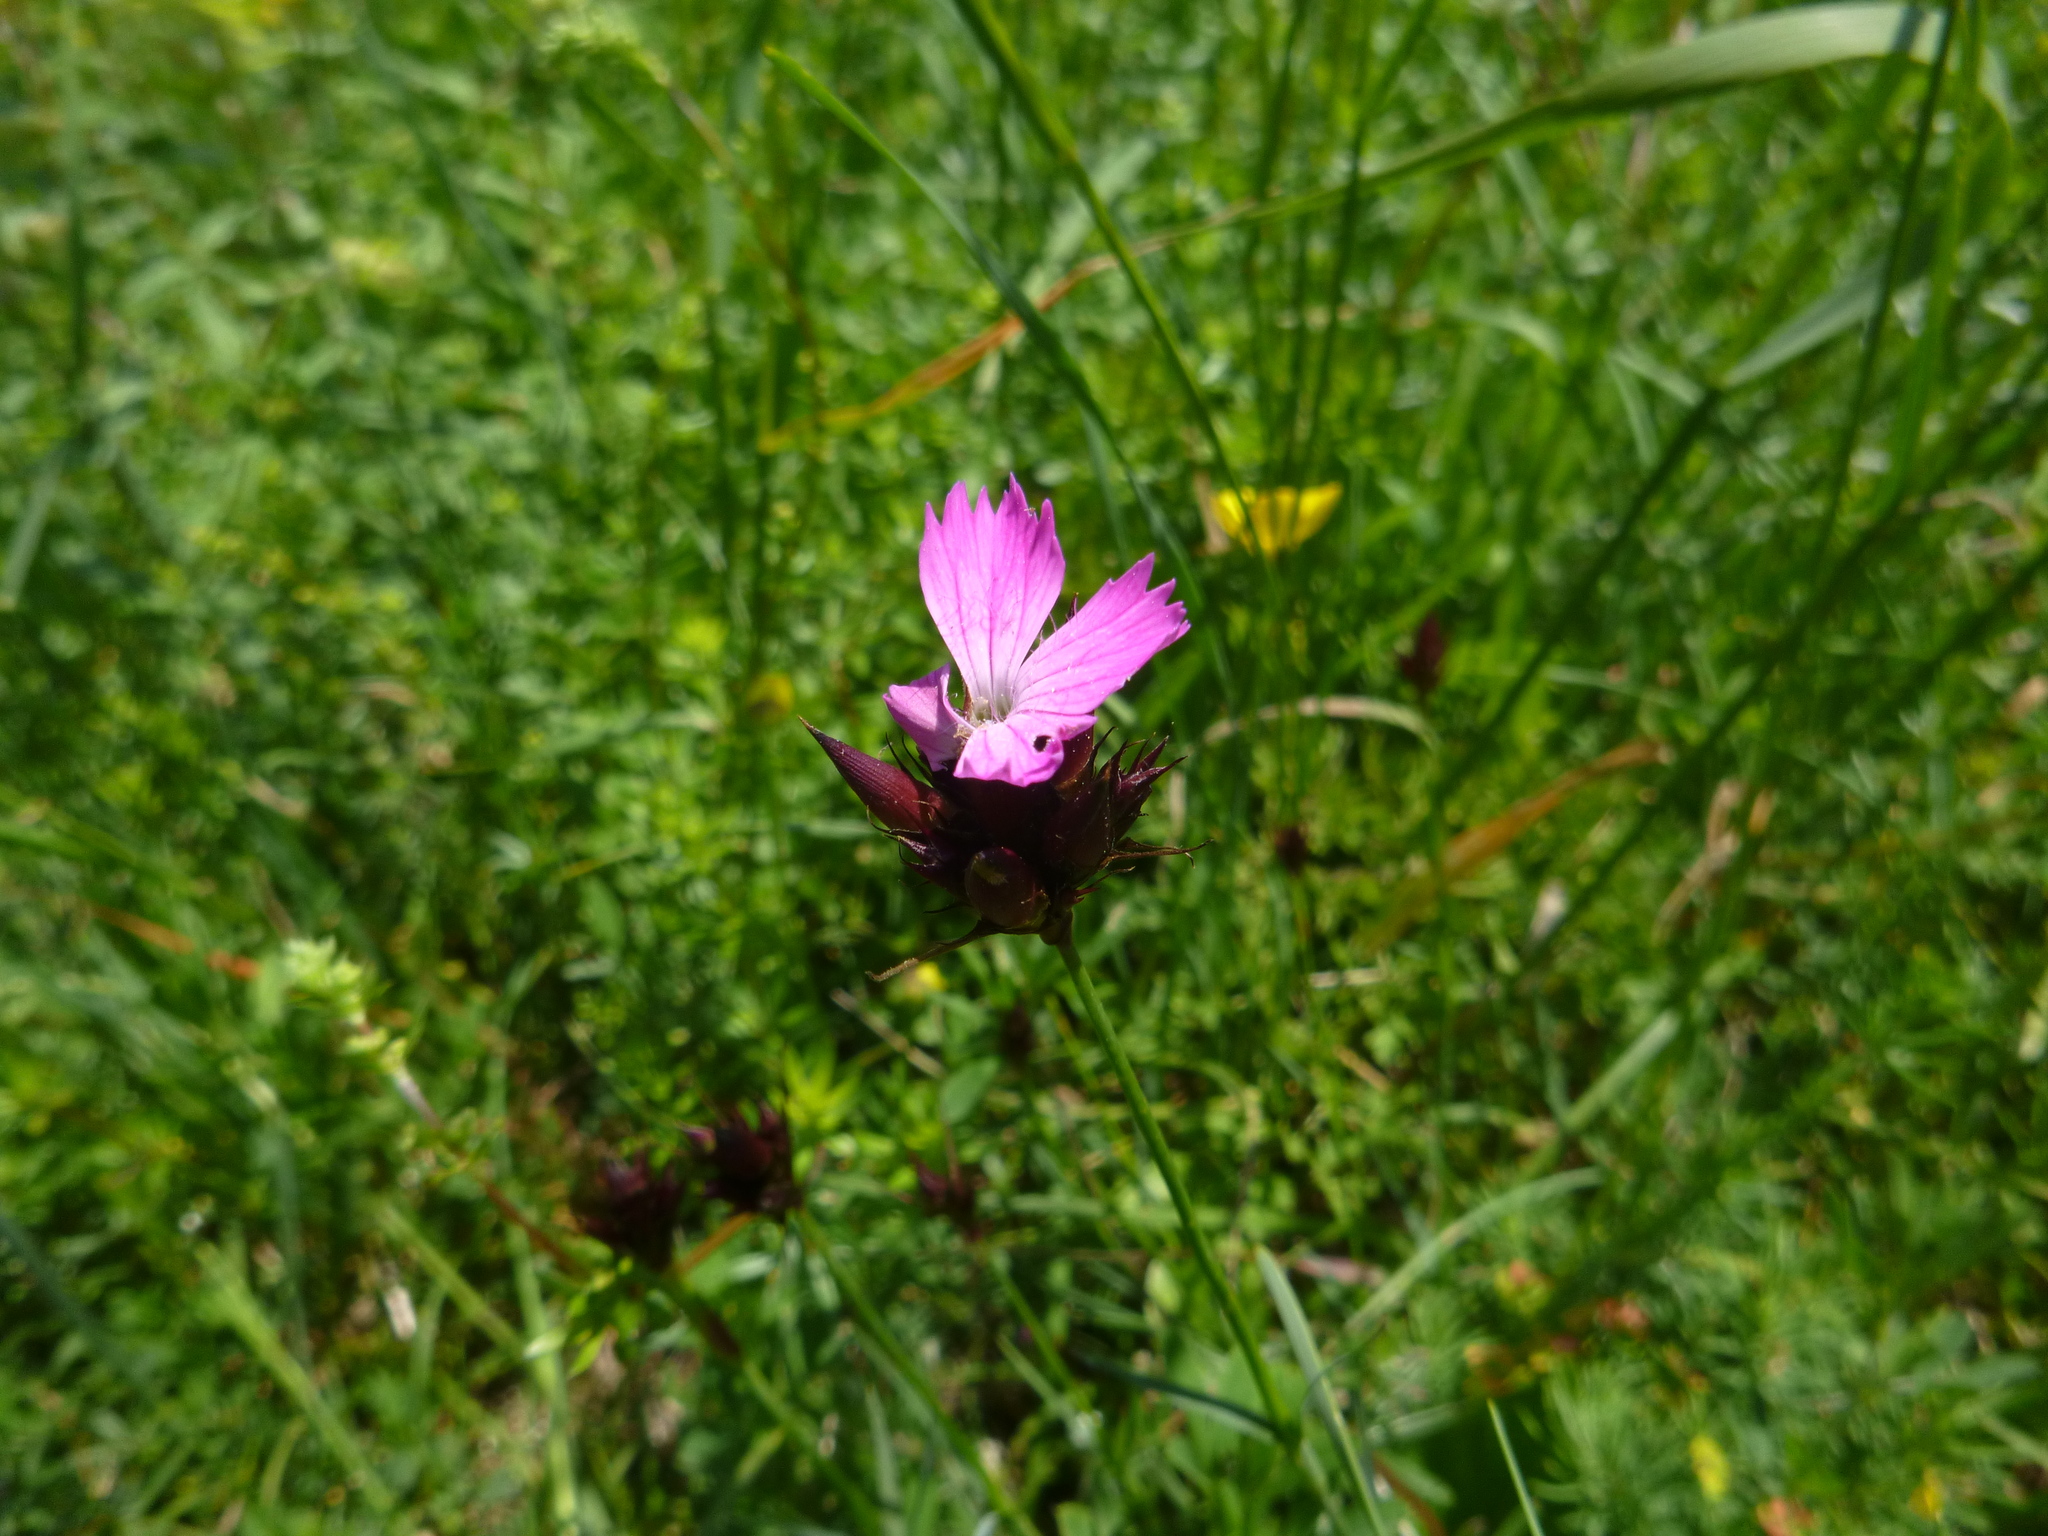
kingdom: Plantae
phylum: Tracheophyta
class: Magnoliopsida
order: Caryophyllales
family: Caryophyllaceae
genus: Dianthus
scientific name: Dianthus carthusianorum
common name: Carthusian pink
